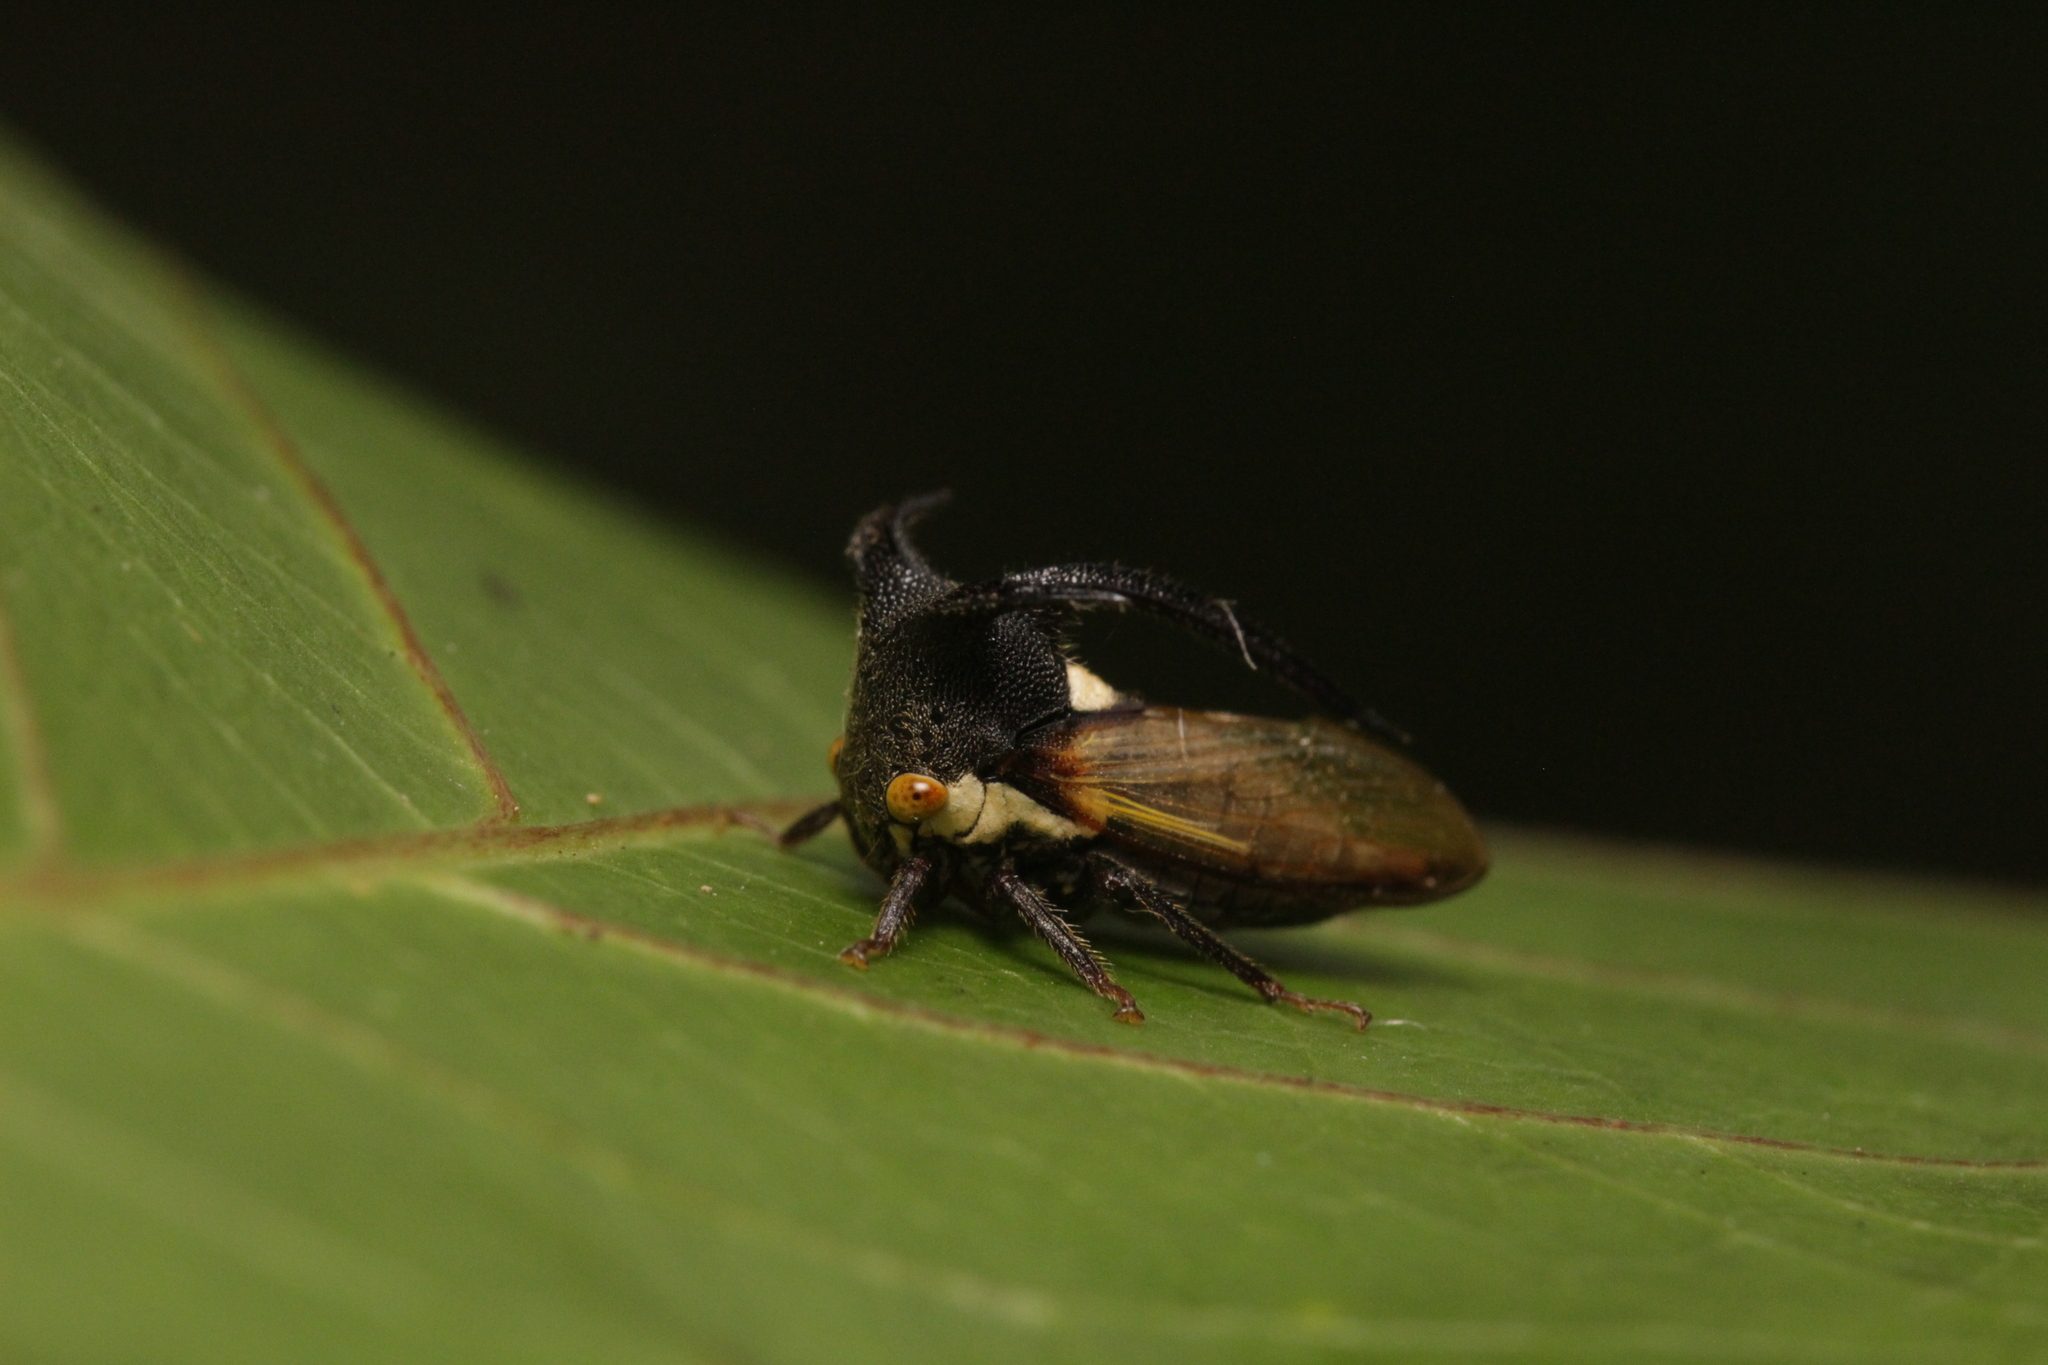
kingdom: Animalia
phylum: Arthropoda
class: Insecta
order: Hemiptera
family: Membracidae
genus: Leptocentrus
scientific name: Leptocentrus taurus
